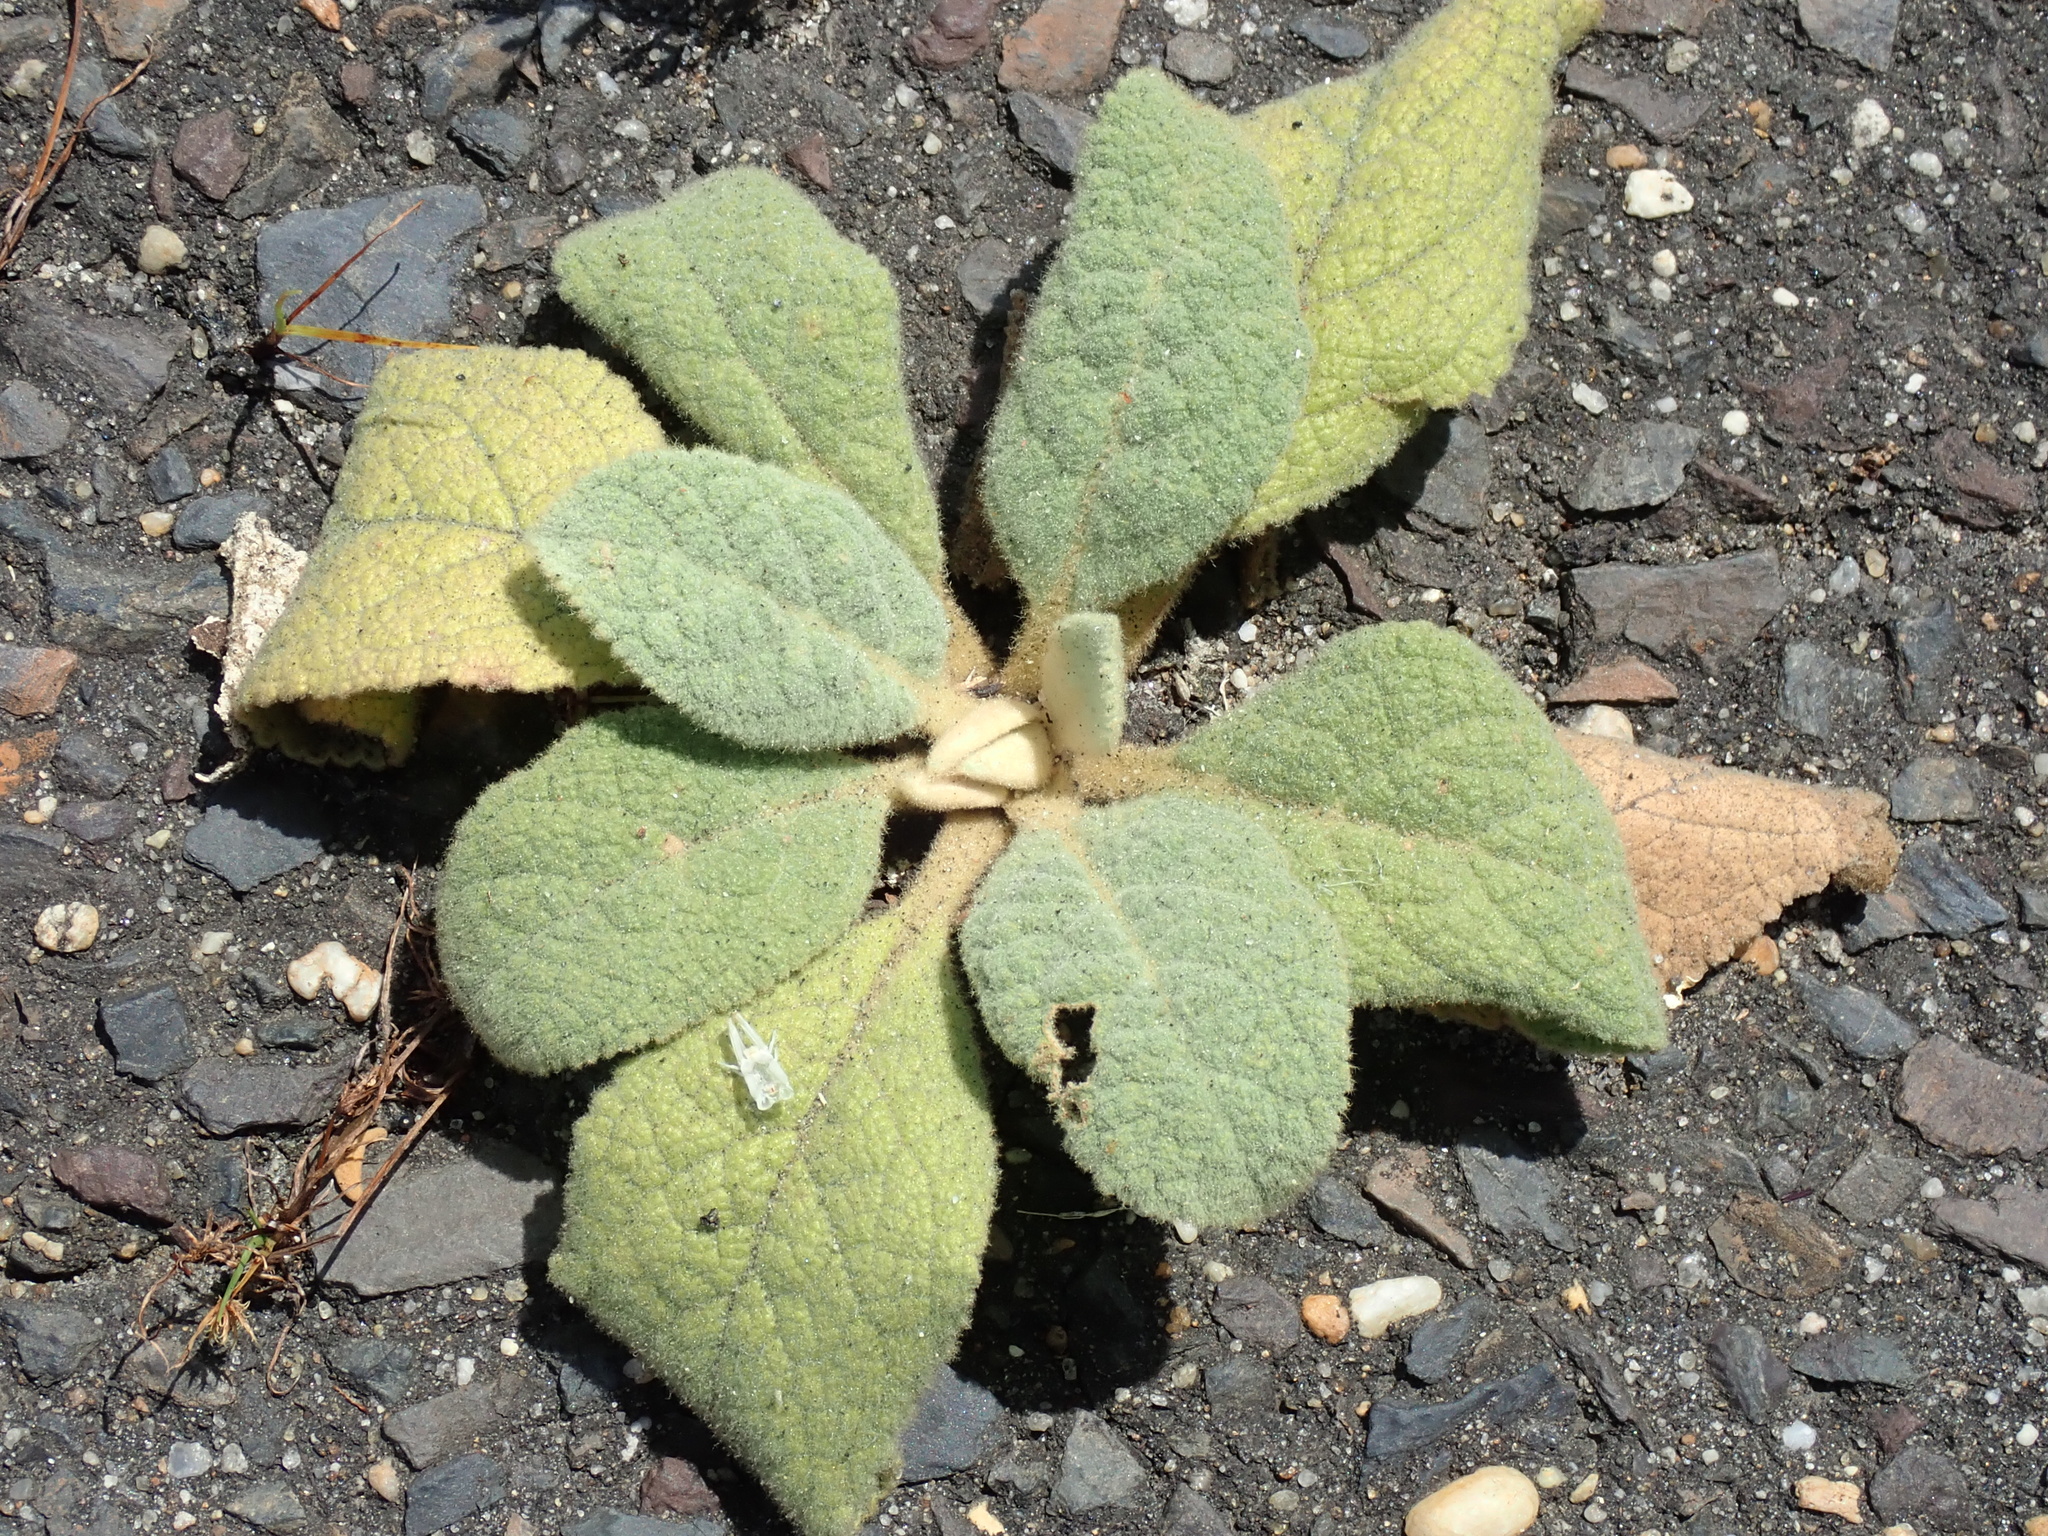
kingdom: Plantae
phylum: Tracheophyta
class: Magnoliopsida
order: Lamiales
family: Scrophulariaceae
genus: Verbascum
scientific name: Verbascum phlomoides
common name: Orange mullein
